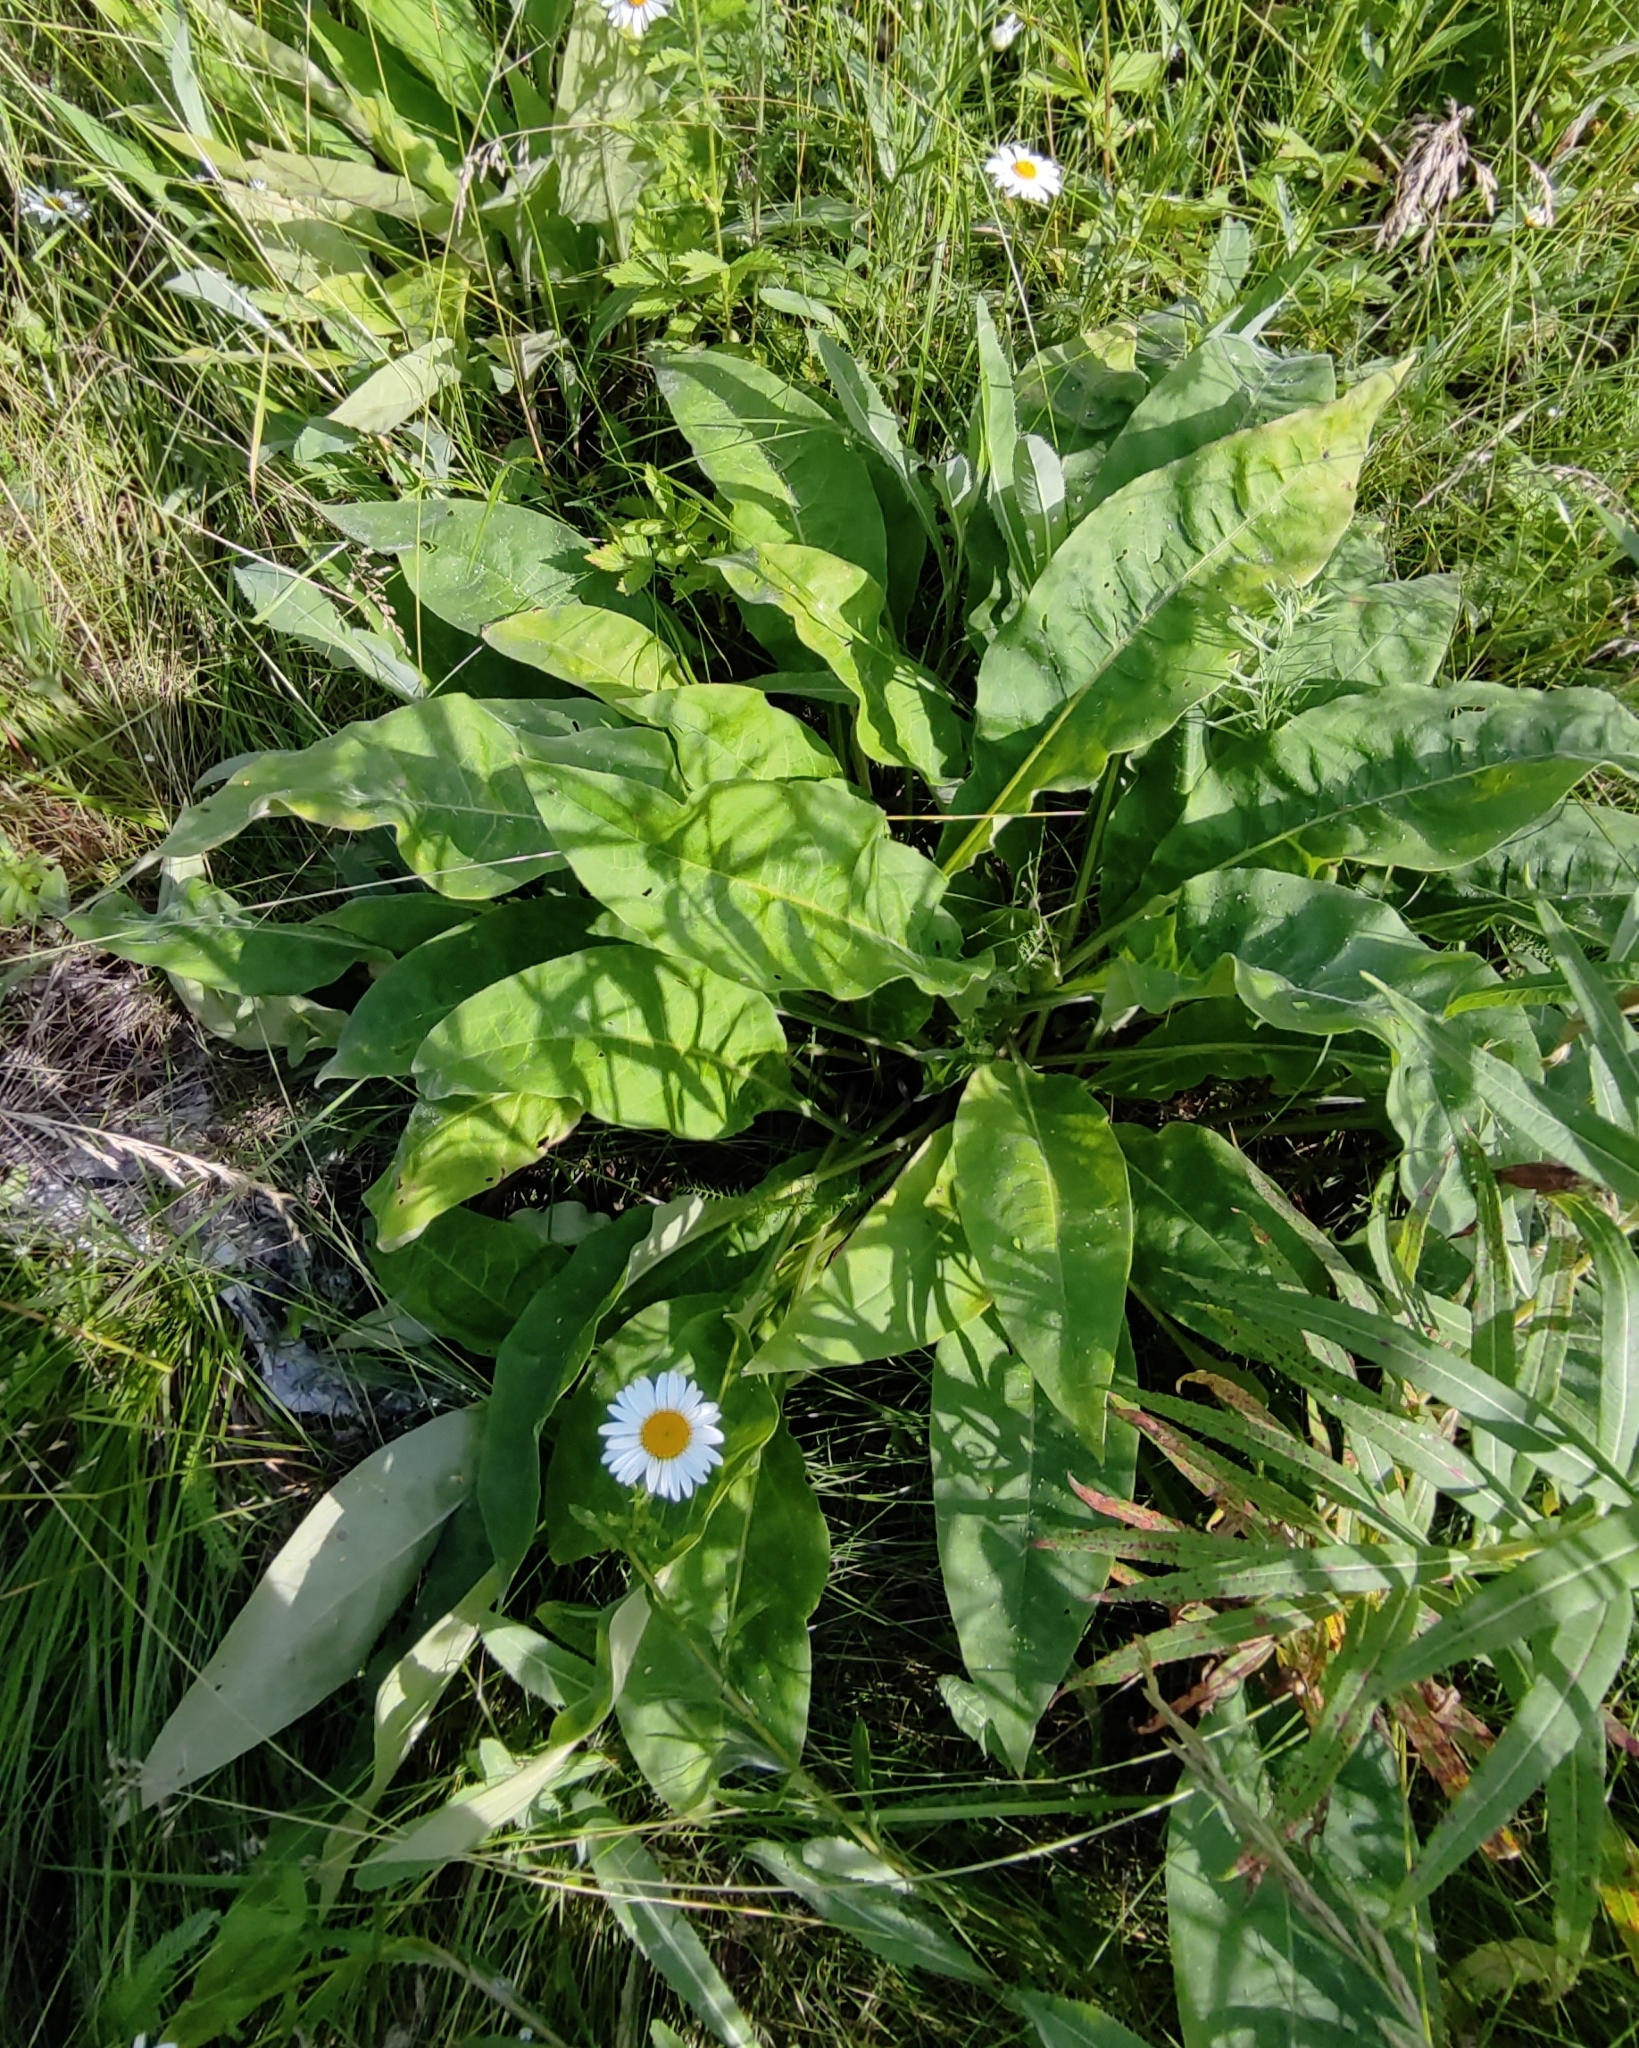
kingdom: Plantae
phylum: Tracheophyta
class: Magnoliopsida
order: Boraginales
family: Boraginaceae
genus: Pulmonaria
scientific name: Pulmonaria mollis
